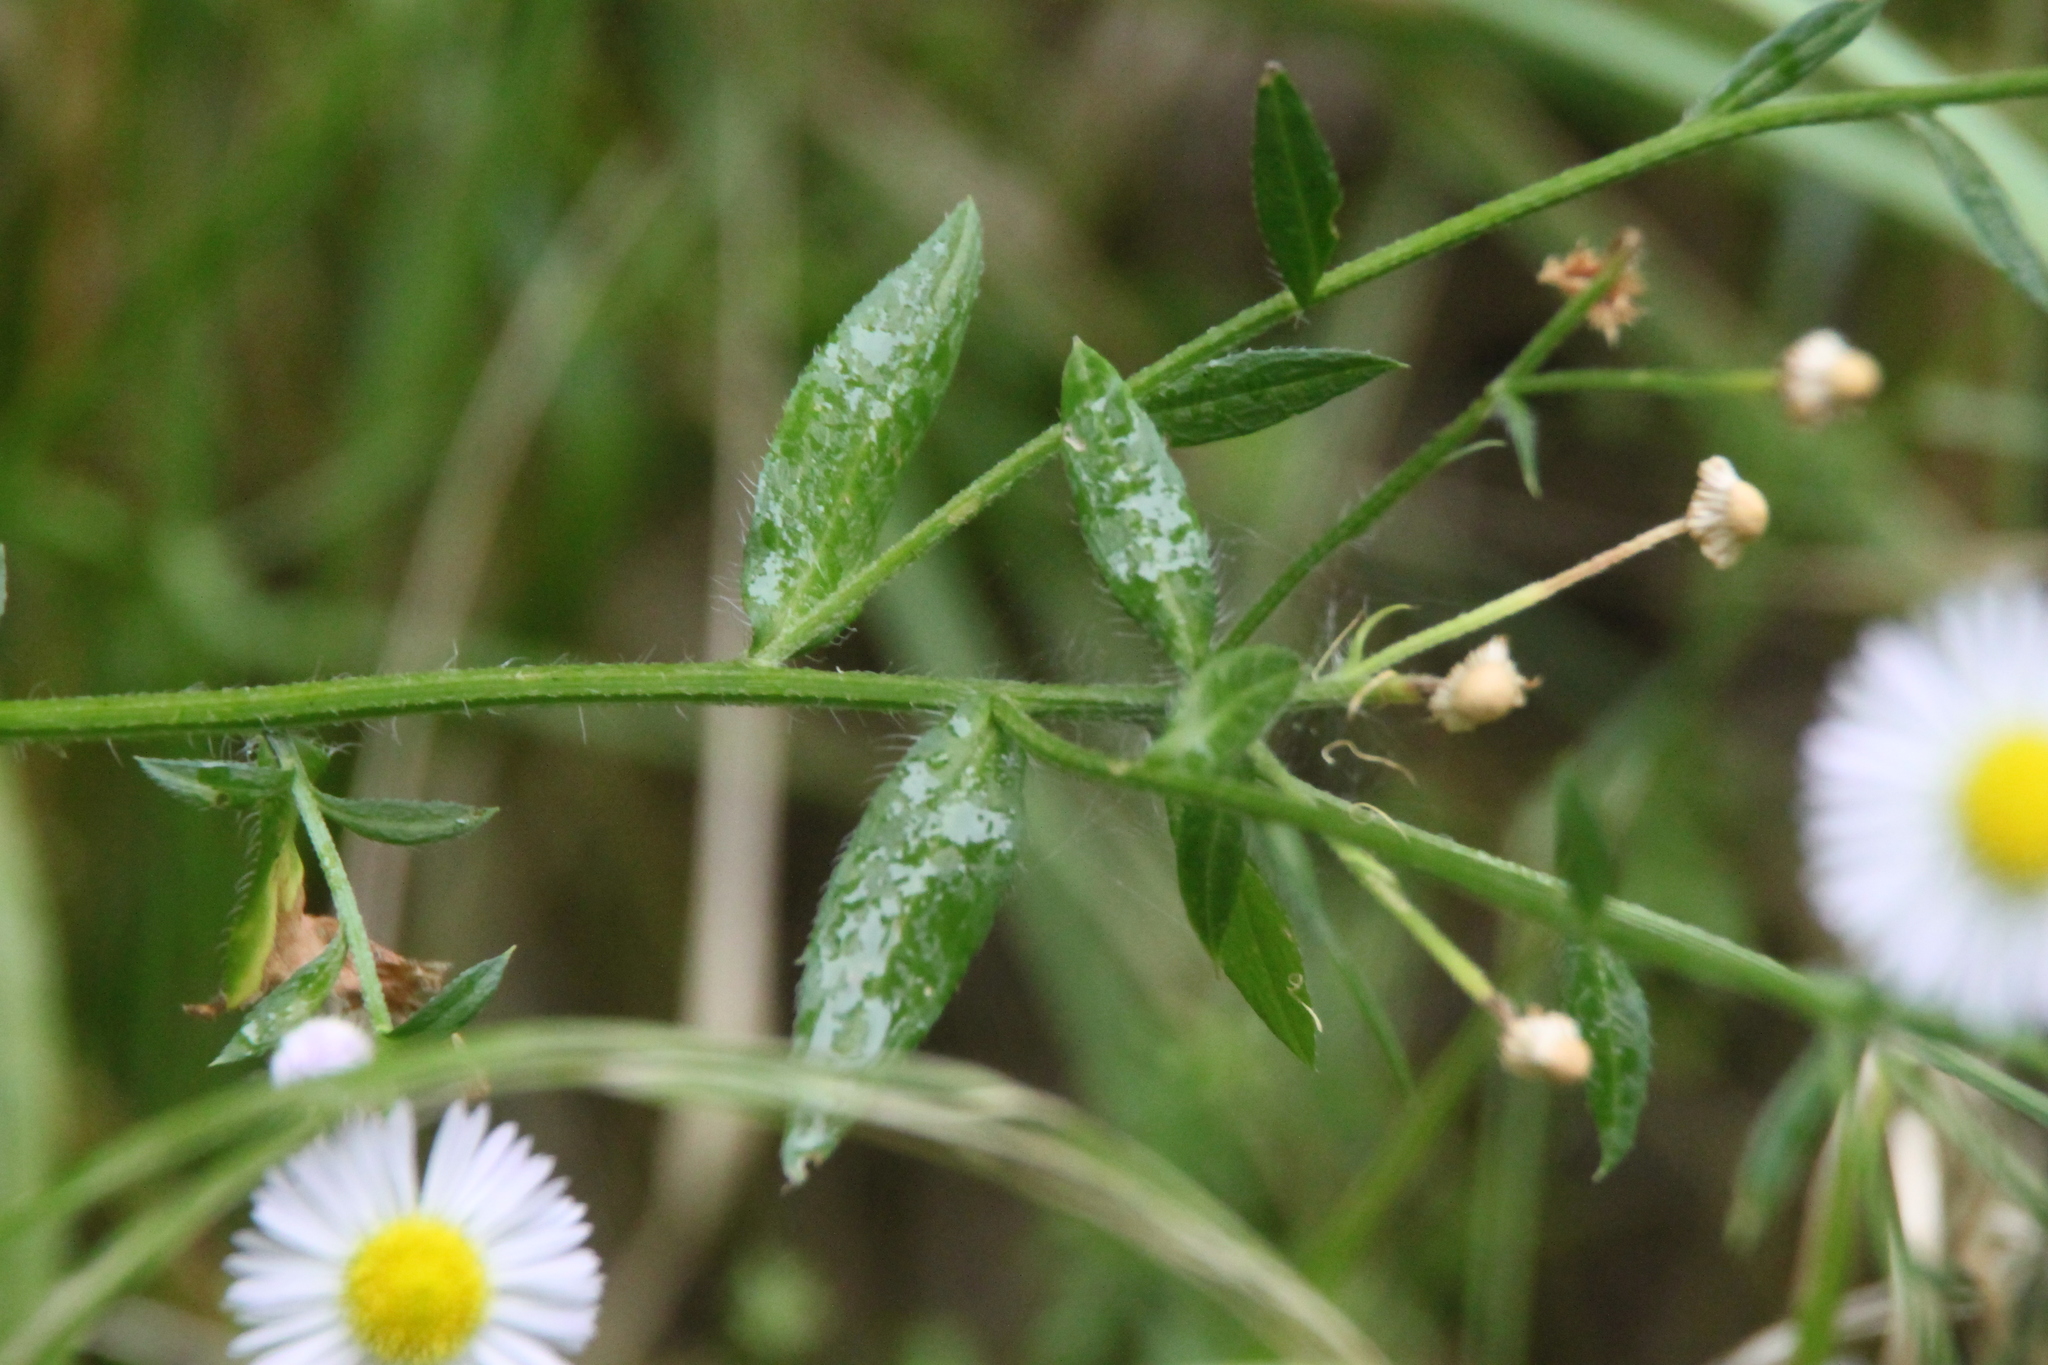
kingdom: Plantae
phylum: Tracheophyta
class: Magnoliopsida
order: Asterales
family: Asteraceae
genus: Erigeron
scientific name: Erigeron annuus
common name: Tall fleabane
